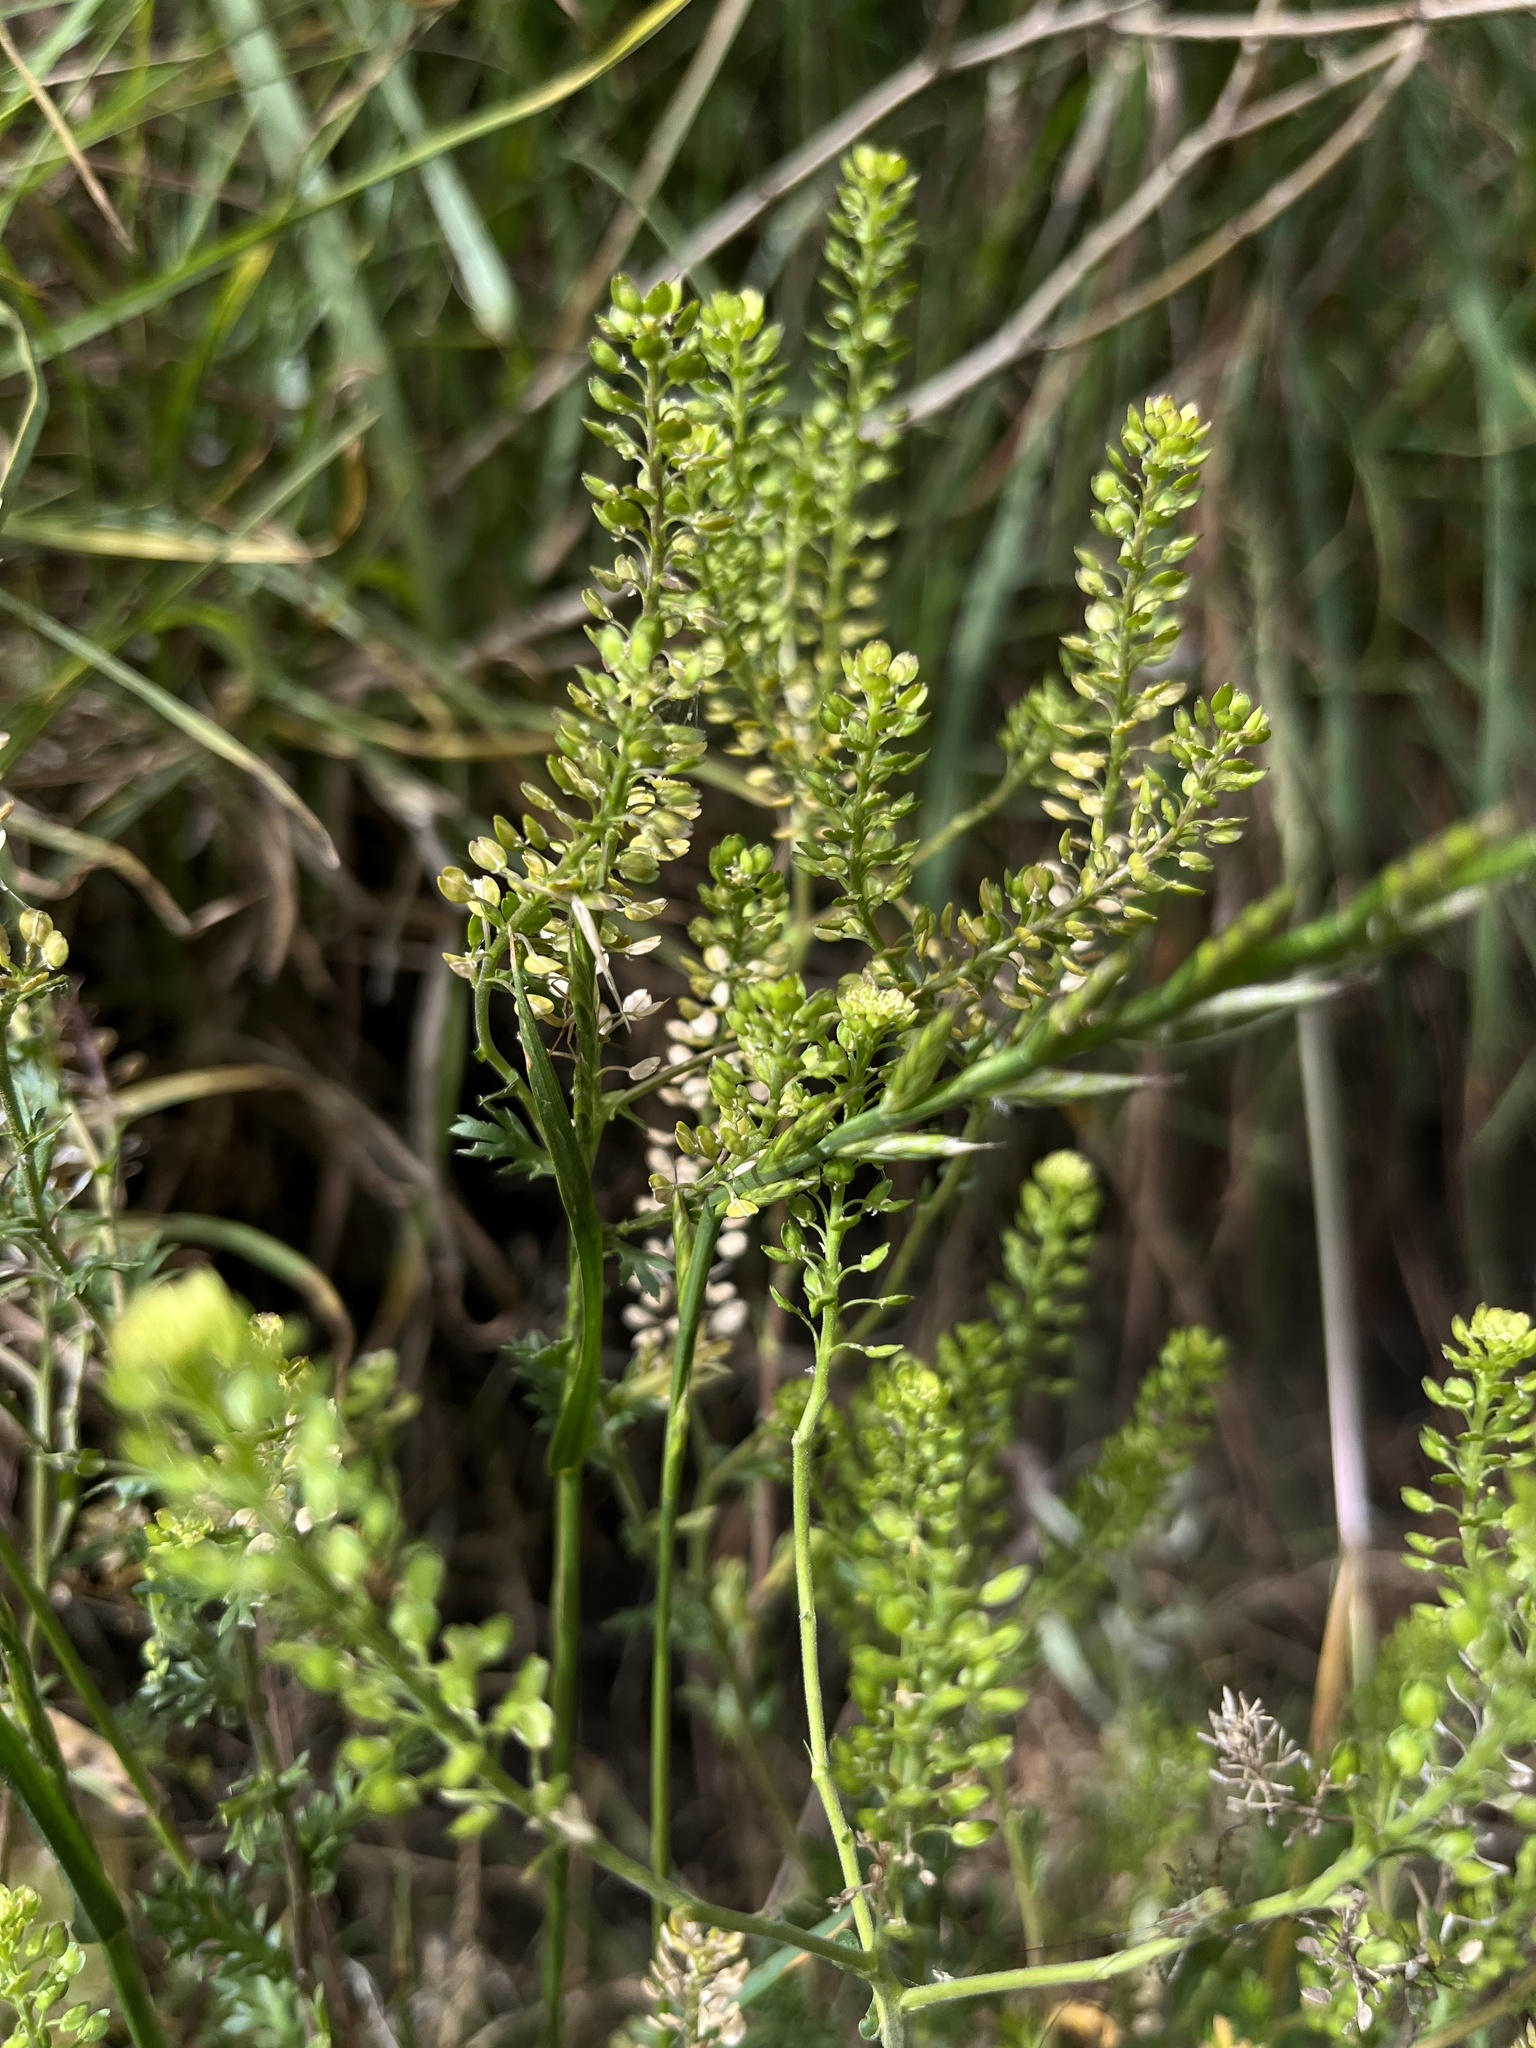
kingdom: Plantae
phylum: Tracheophyta
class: Magnoliopsida
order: Brassicales
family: Brassicaceae
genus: Lepidium
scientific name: Lepidium bipinnatifidum
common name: Wayside pepperwort
